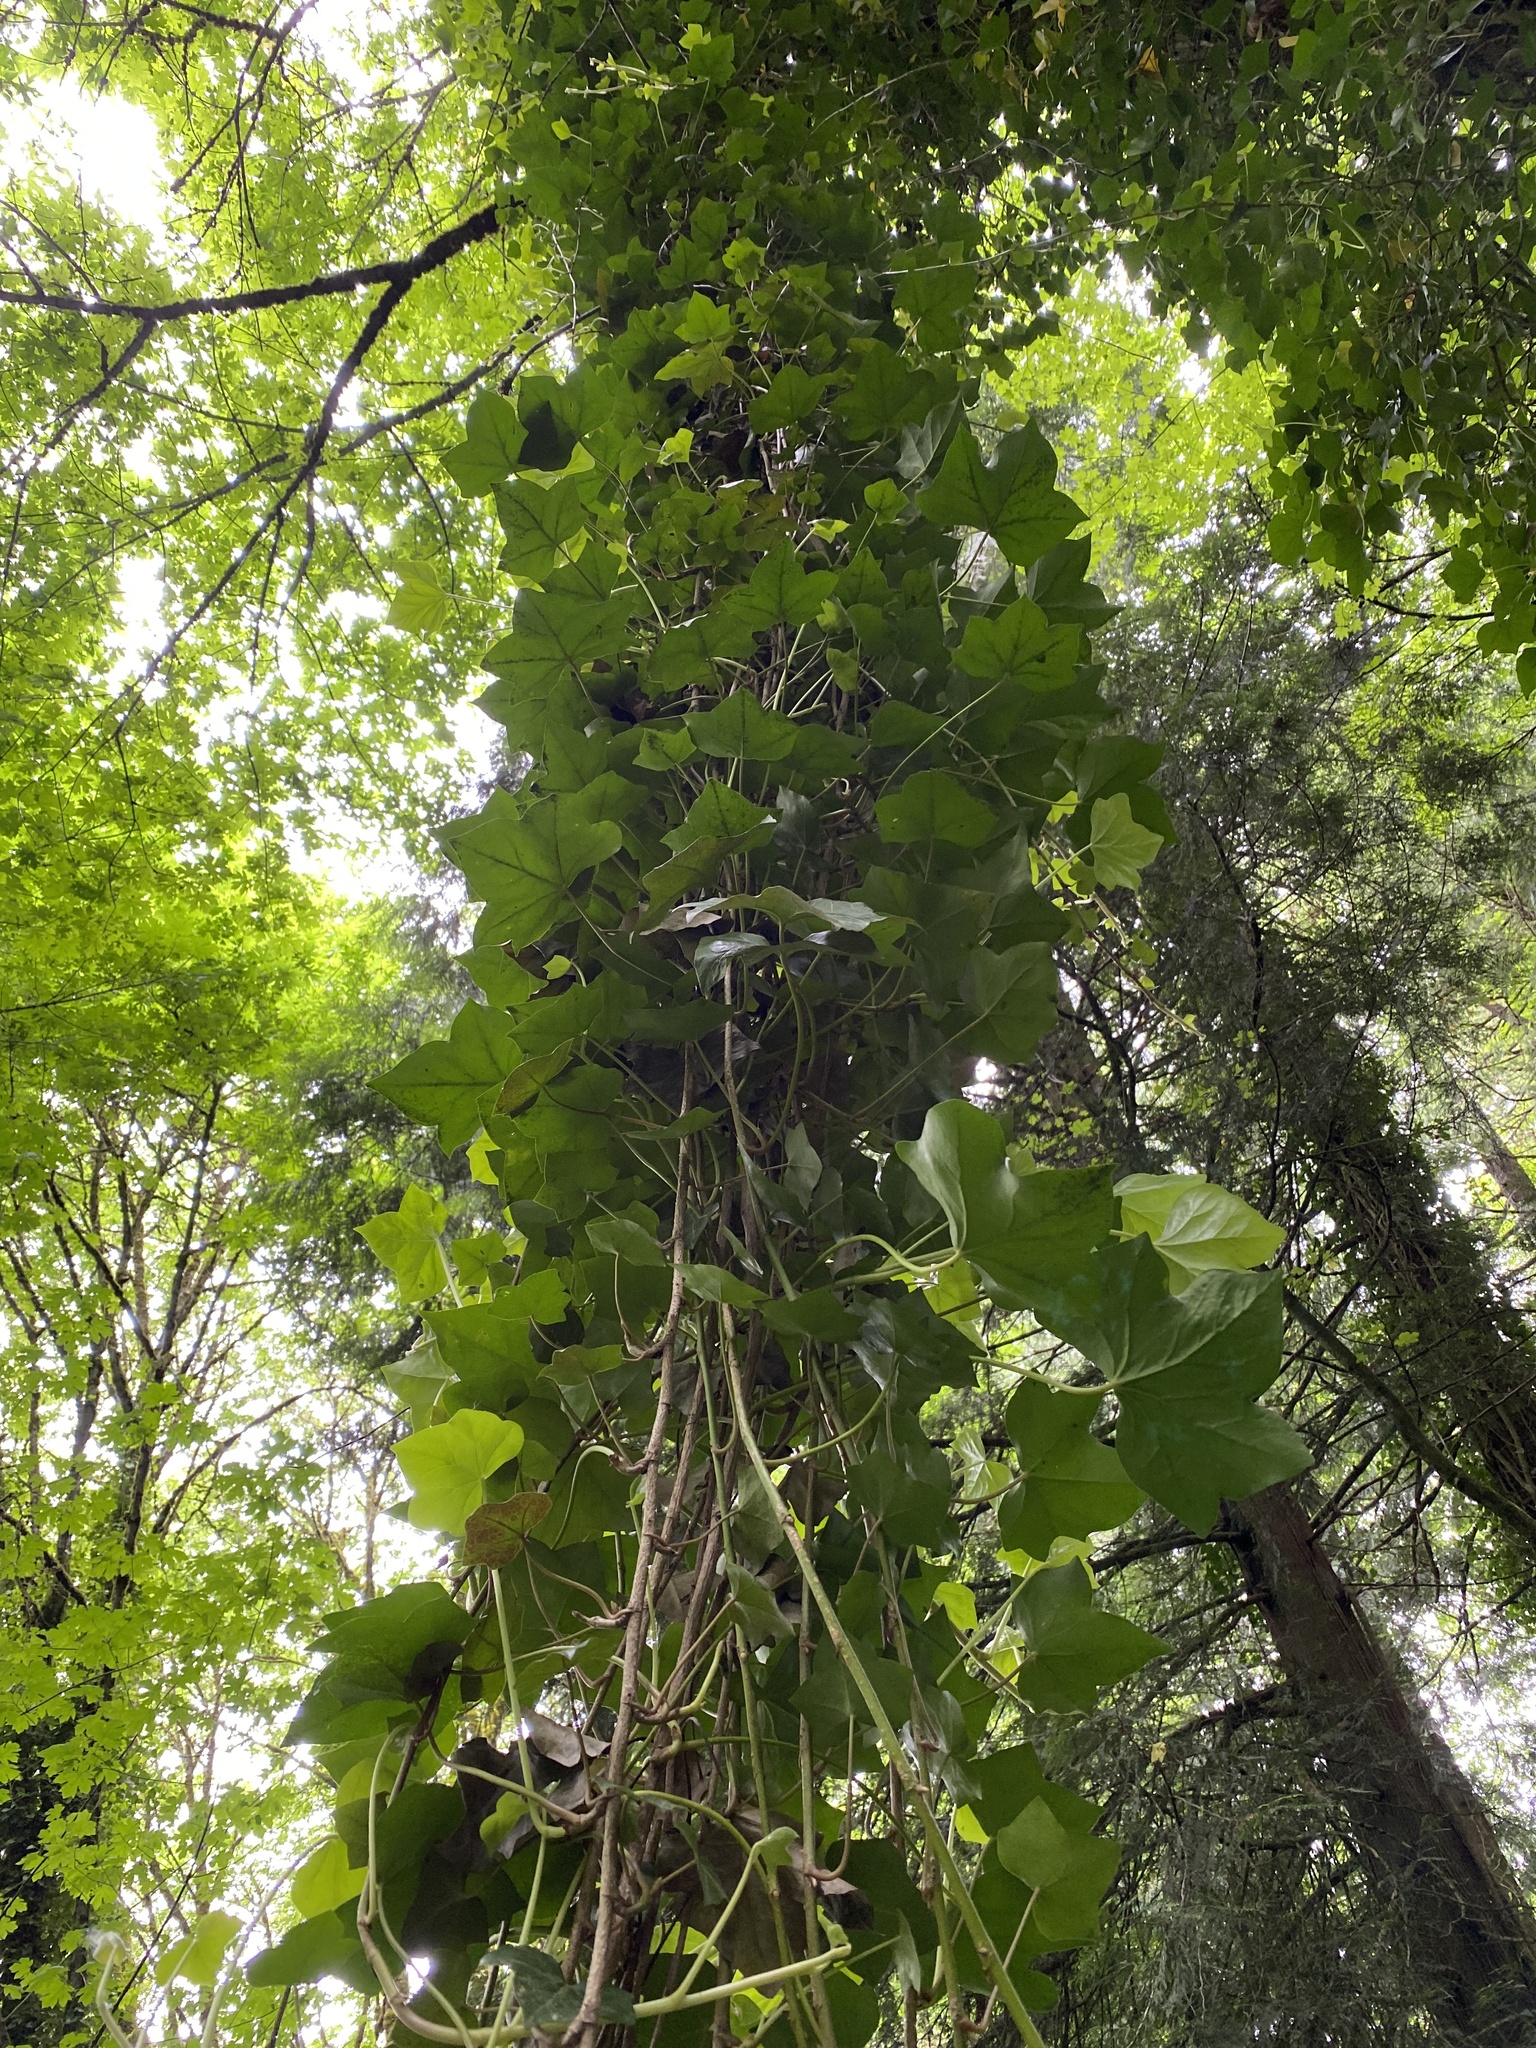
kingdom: Plantae
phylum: Tracheophyta
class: Magnoliopsida
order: Apiales
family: Araliaceae
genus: Hedera
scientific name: Hedera helix
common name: Ivy
